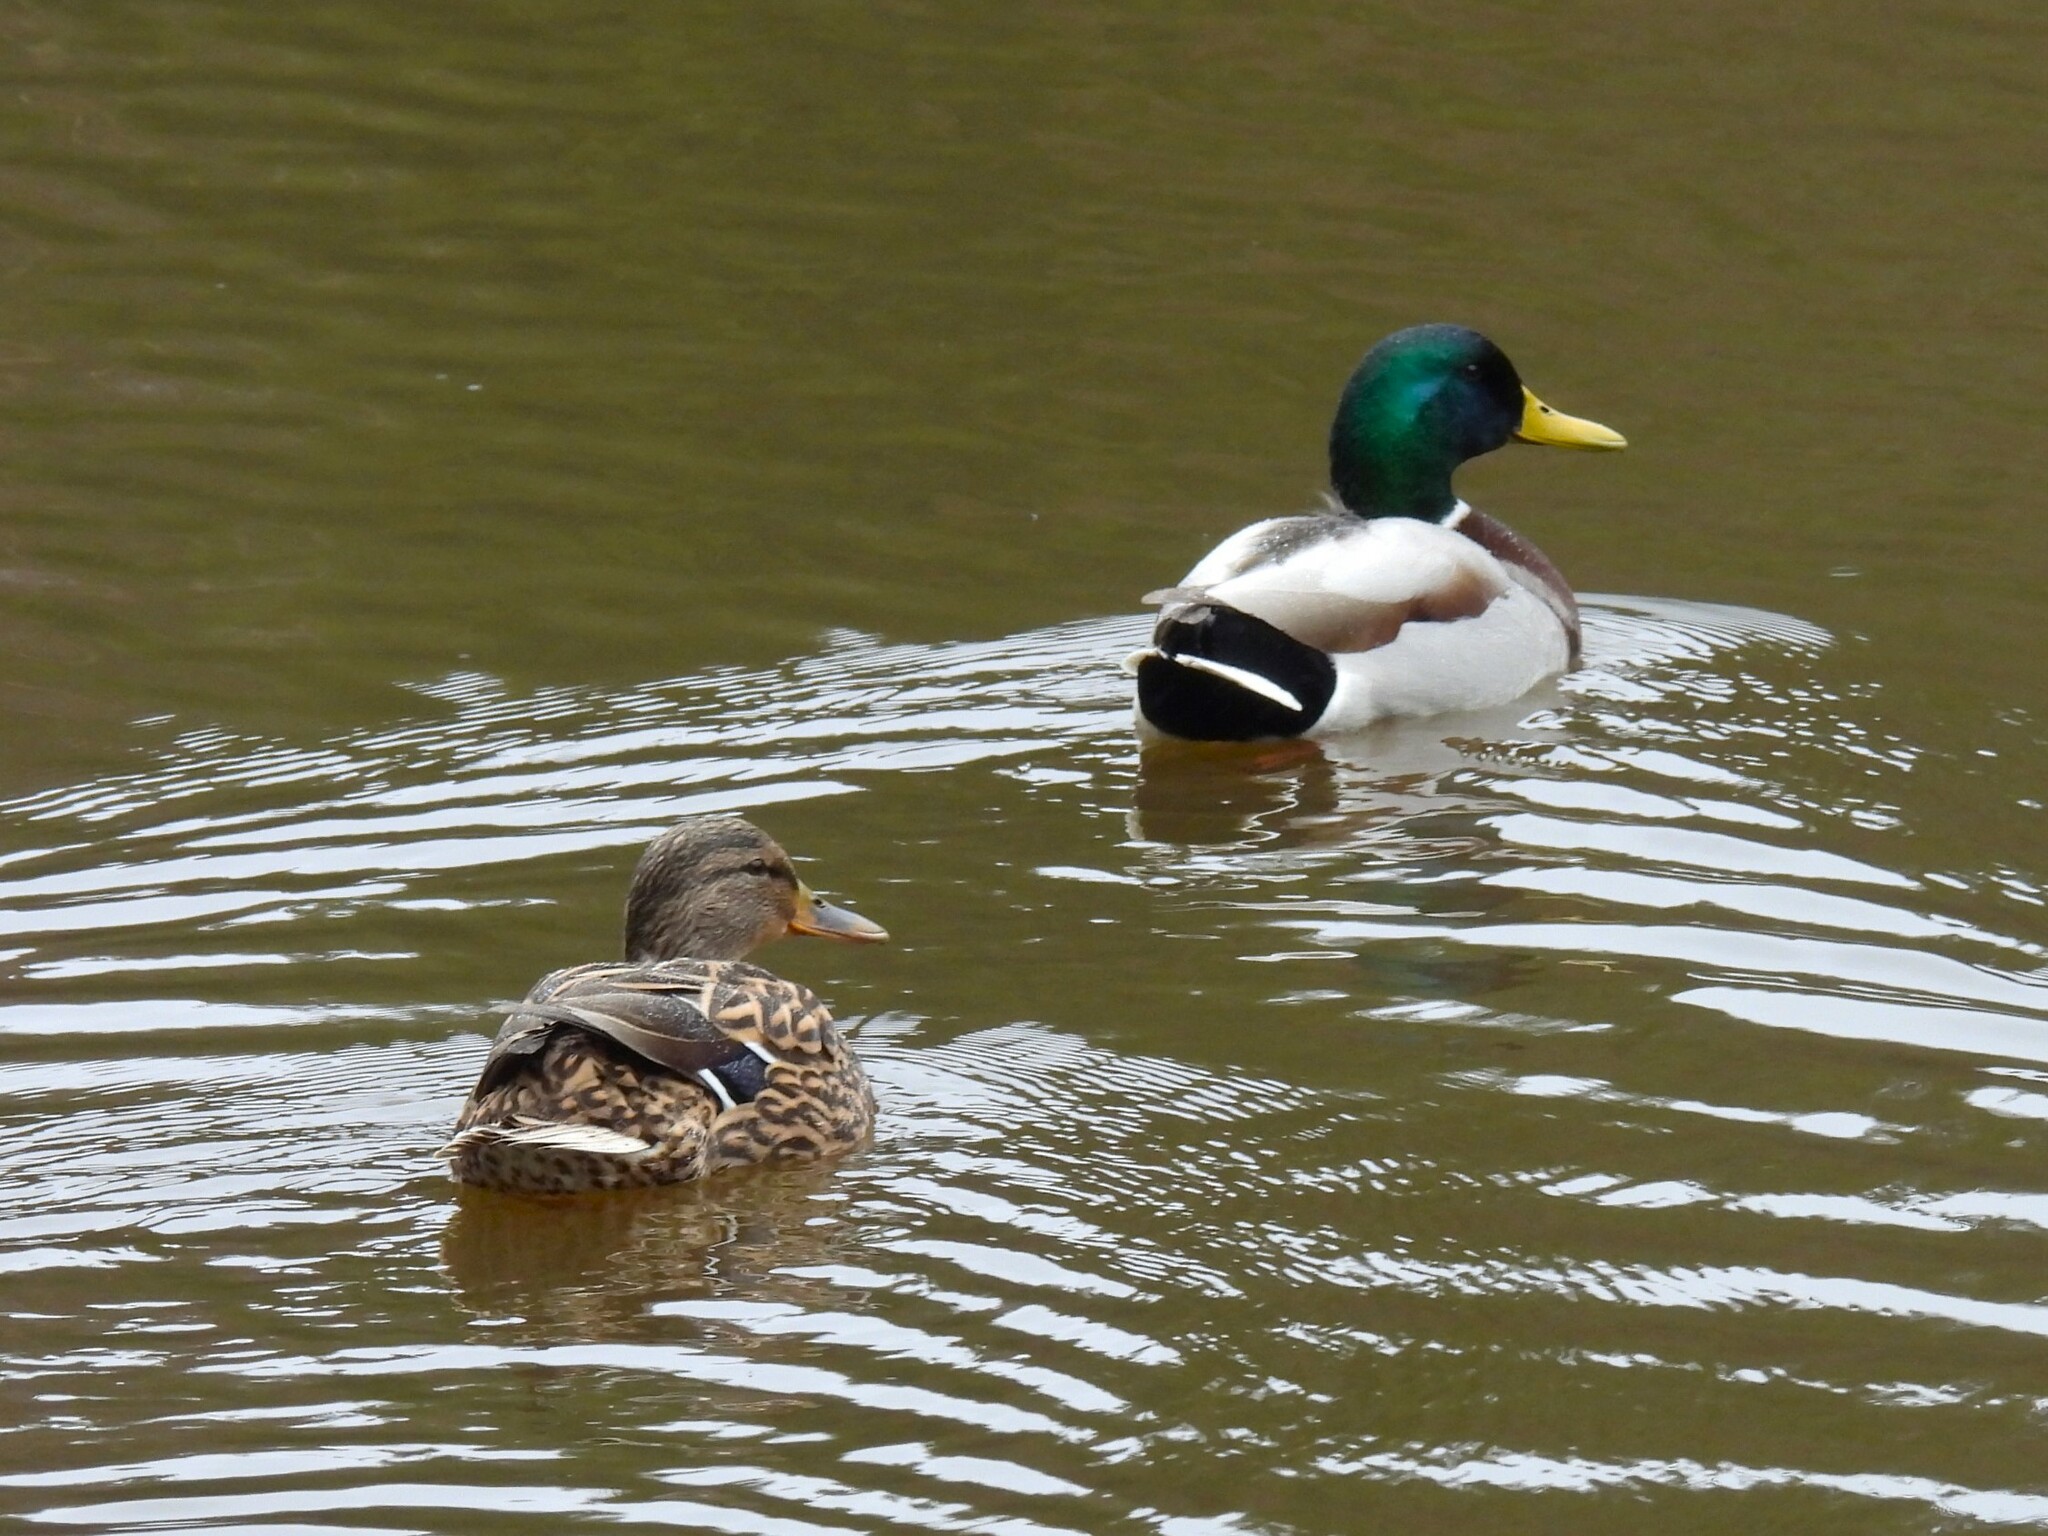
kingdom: Animalia
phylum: Chordata
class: Aves
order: Anseriformes
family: Anatidae
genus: Anas
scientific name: Anas platyrhynchos
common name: Mallard
